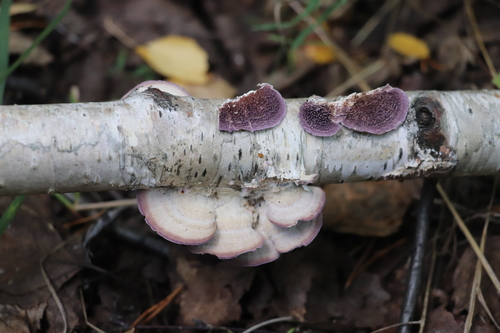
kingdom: Fungi
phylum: Basidiomycota
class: Agaricomycetes
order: Hymenochaetales
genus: Trichaptum
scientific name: Trichaptum
